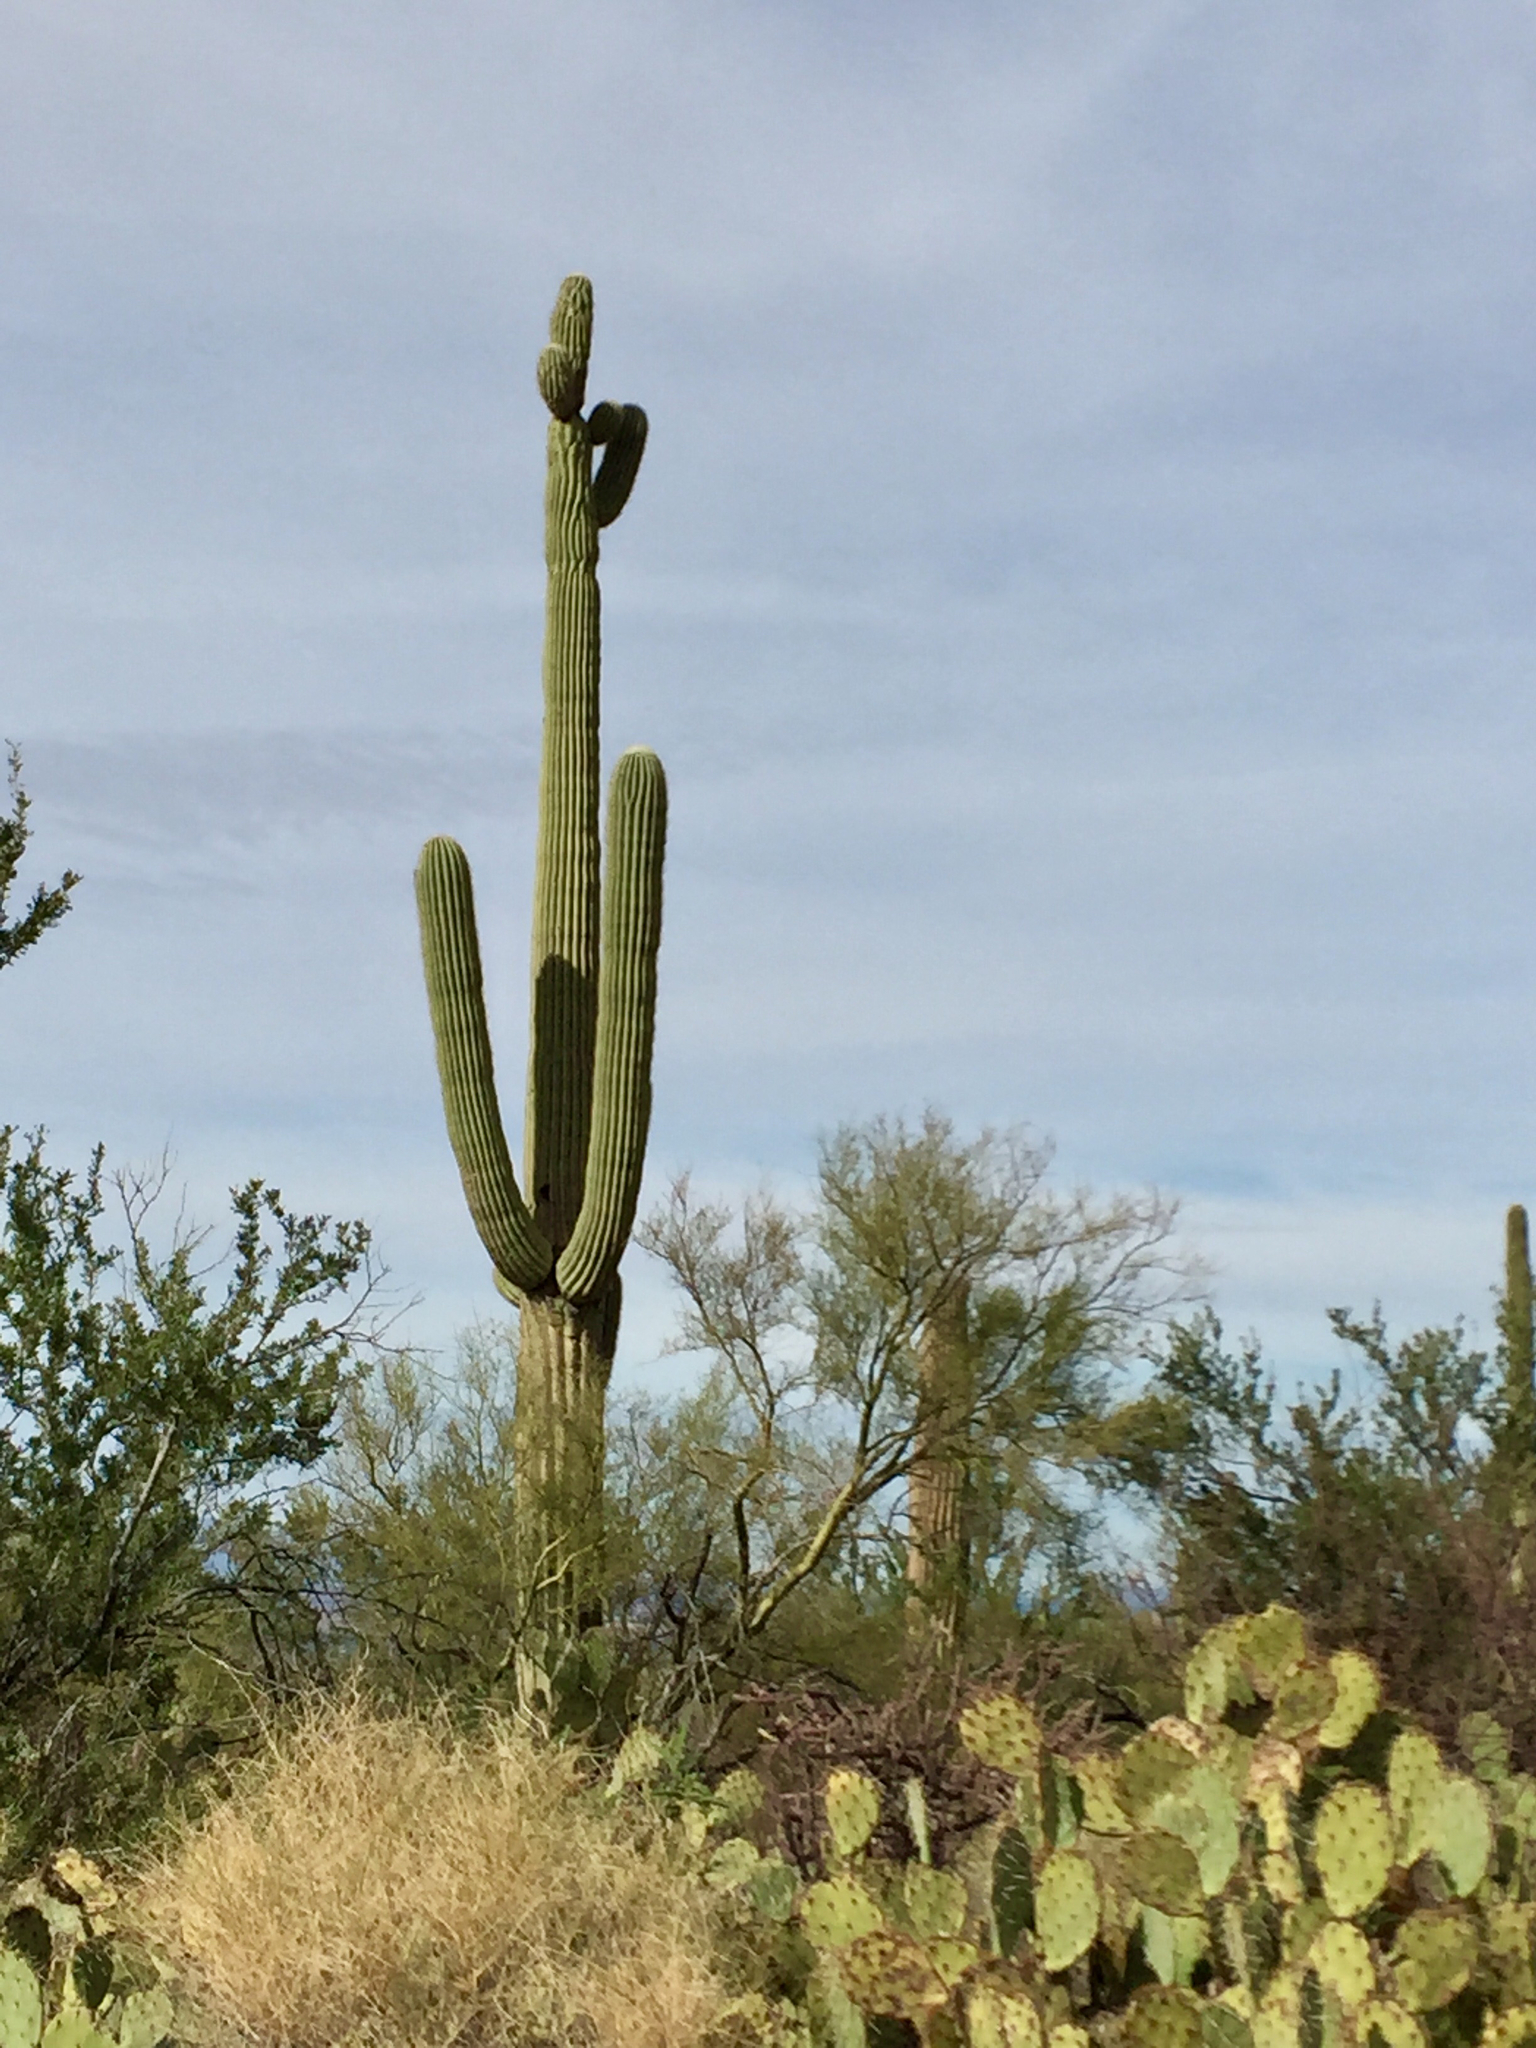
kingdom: Plantae
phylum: Tracheophyta
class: Magnoliopsida
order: Caryophyllales
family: Cactaceae
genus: Carnegiea
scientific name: Carnegiea gigantea
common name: Saguaro
